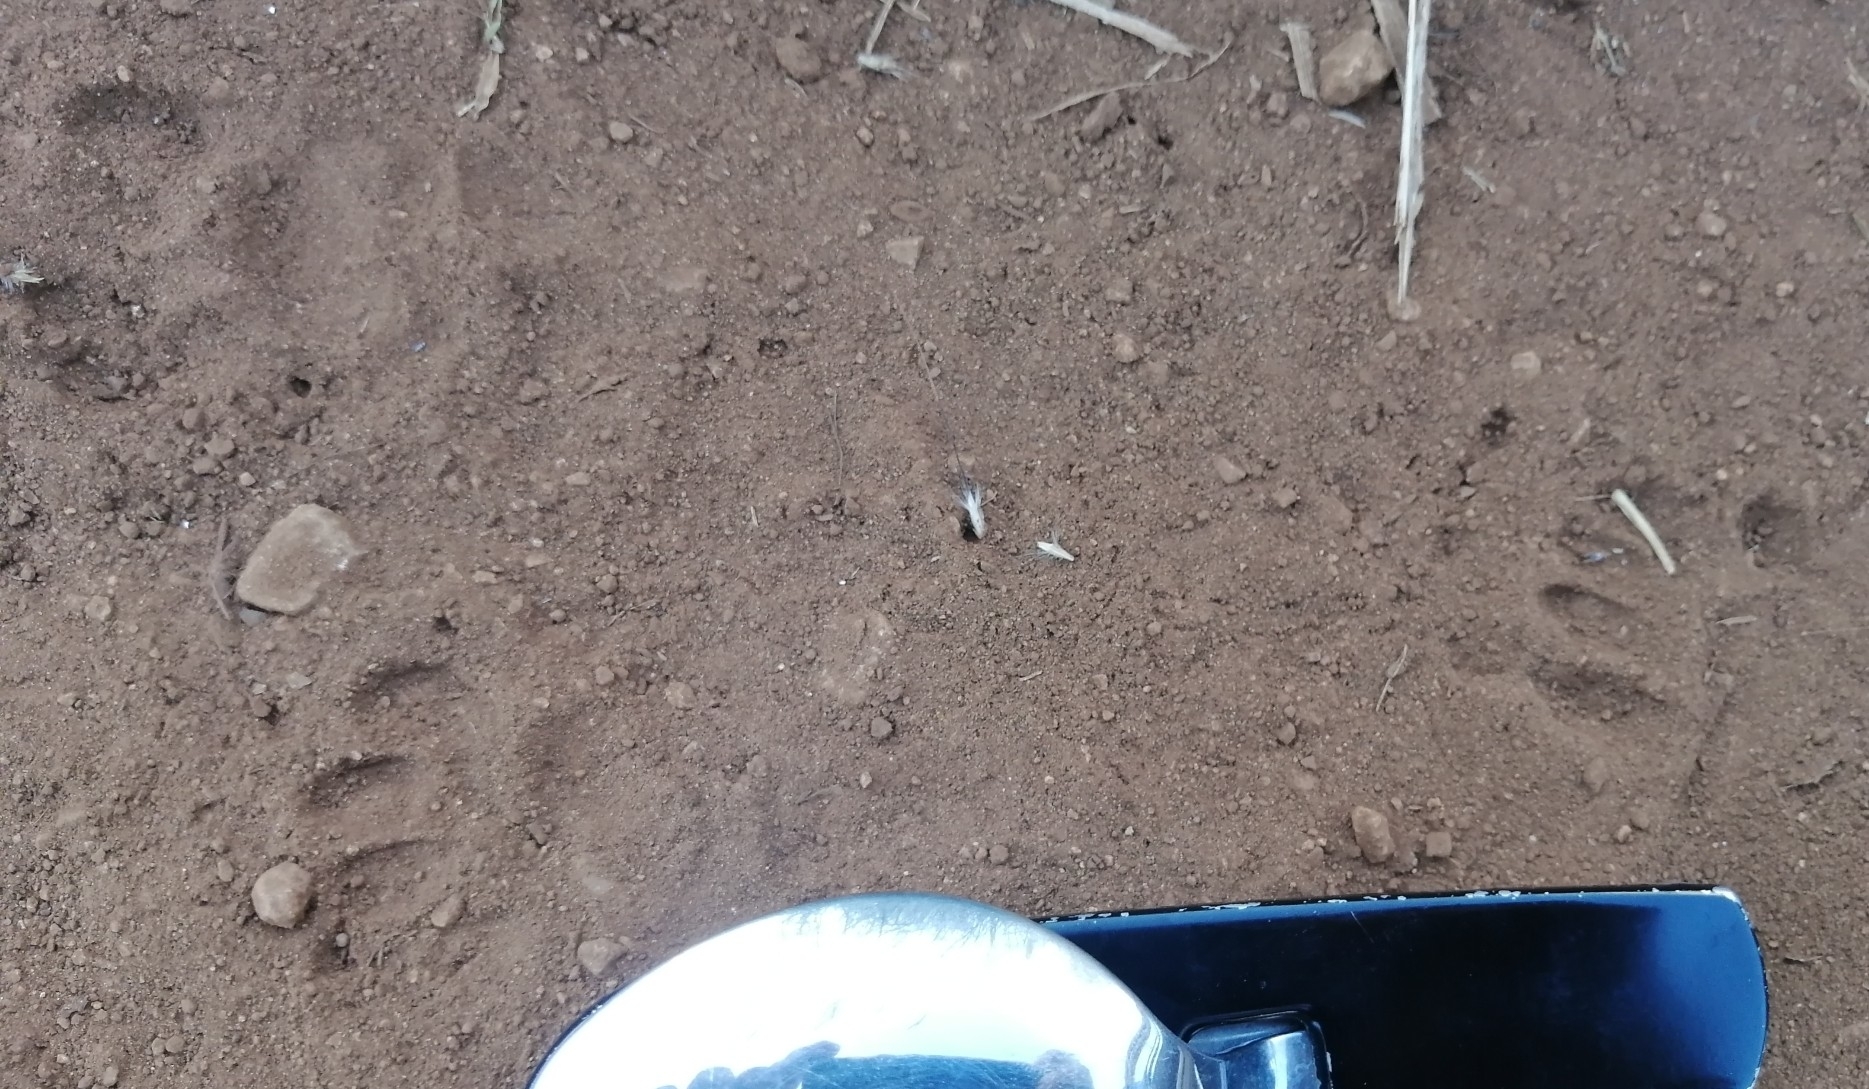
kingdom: Animalia
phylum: Chordata
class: Mammalia
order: Carnivora
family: Procyonidae
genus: Nasua
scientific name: Nasua narica
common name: White-nosed coati
